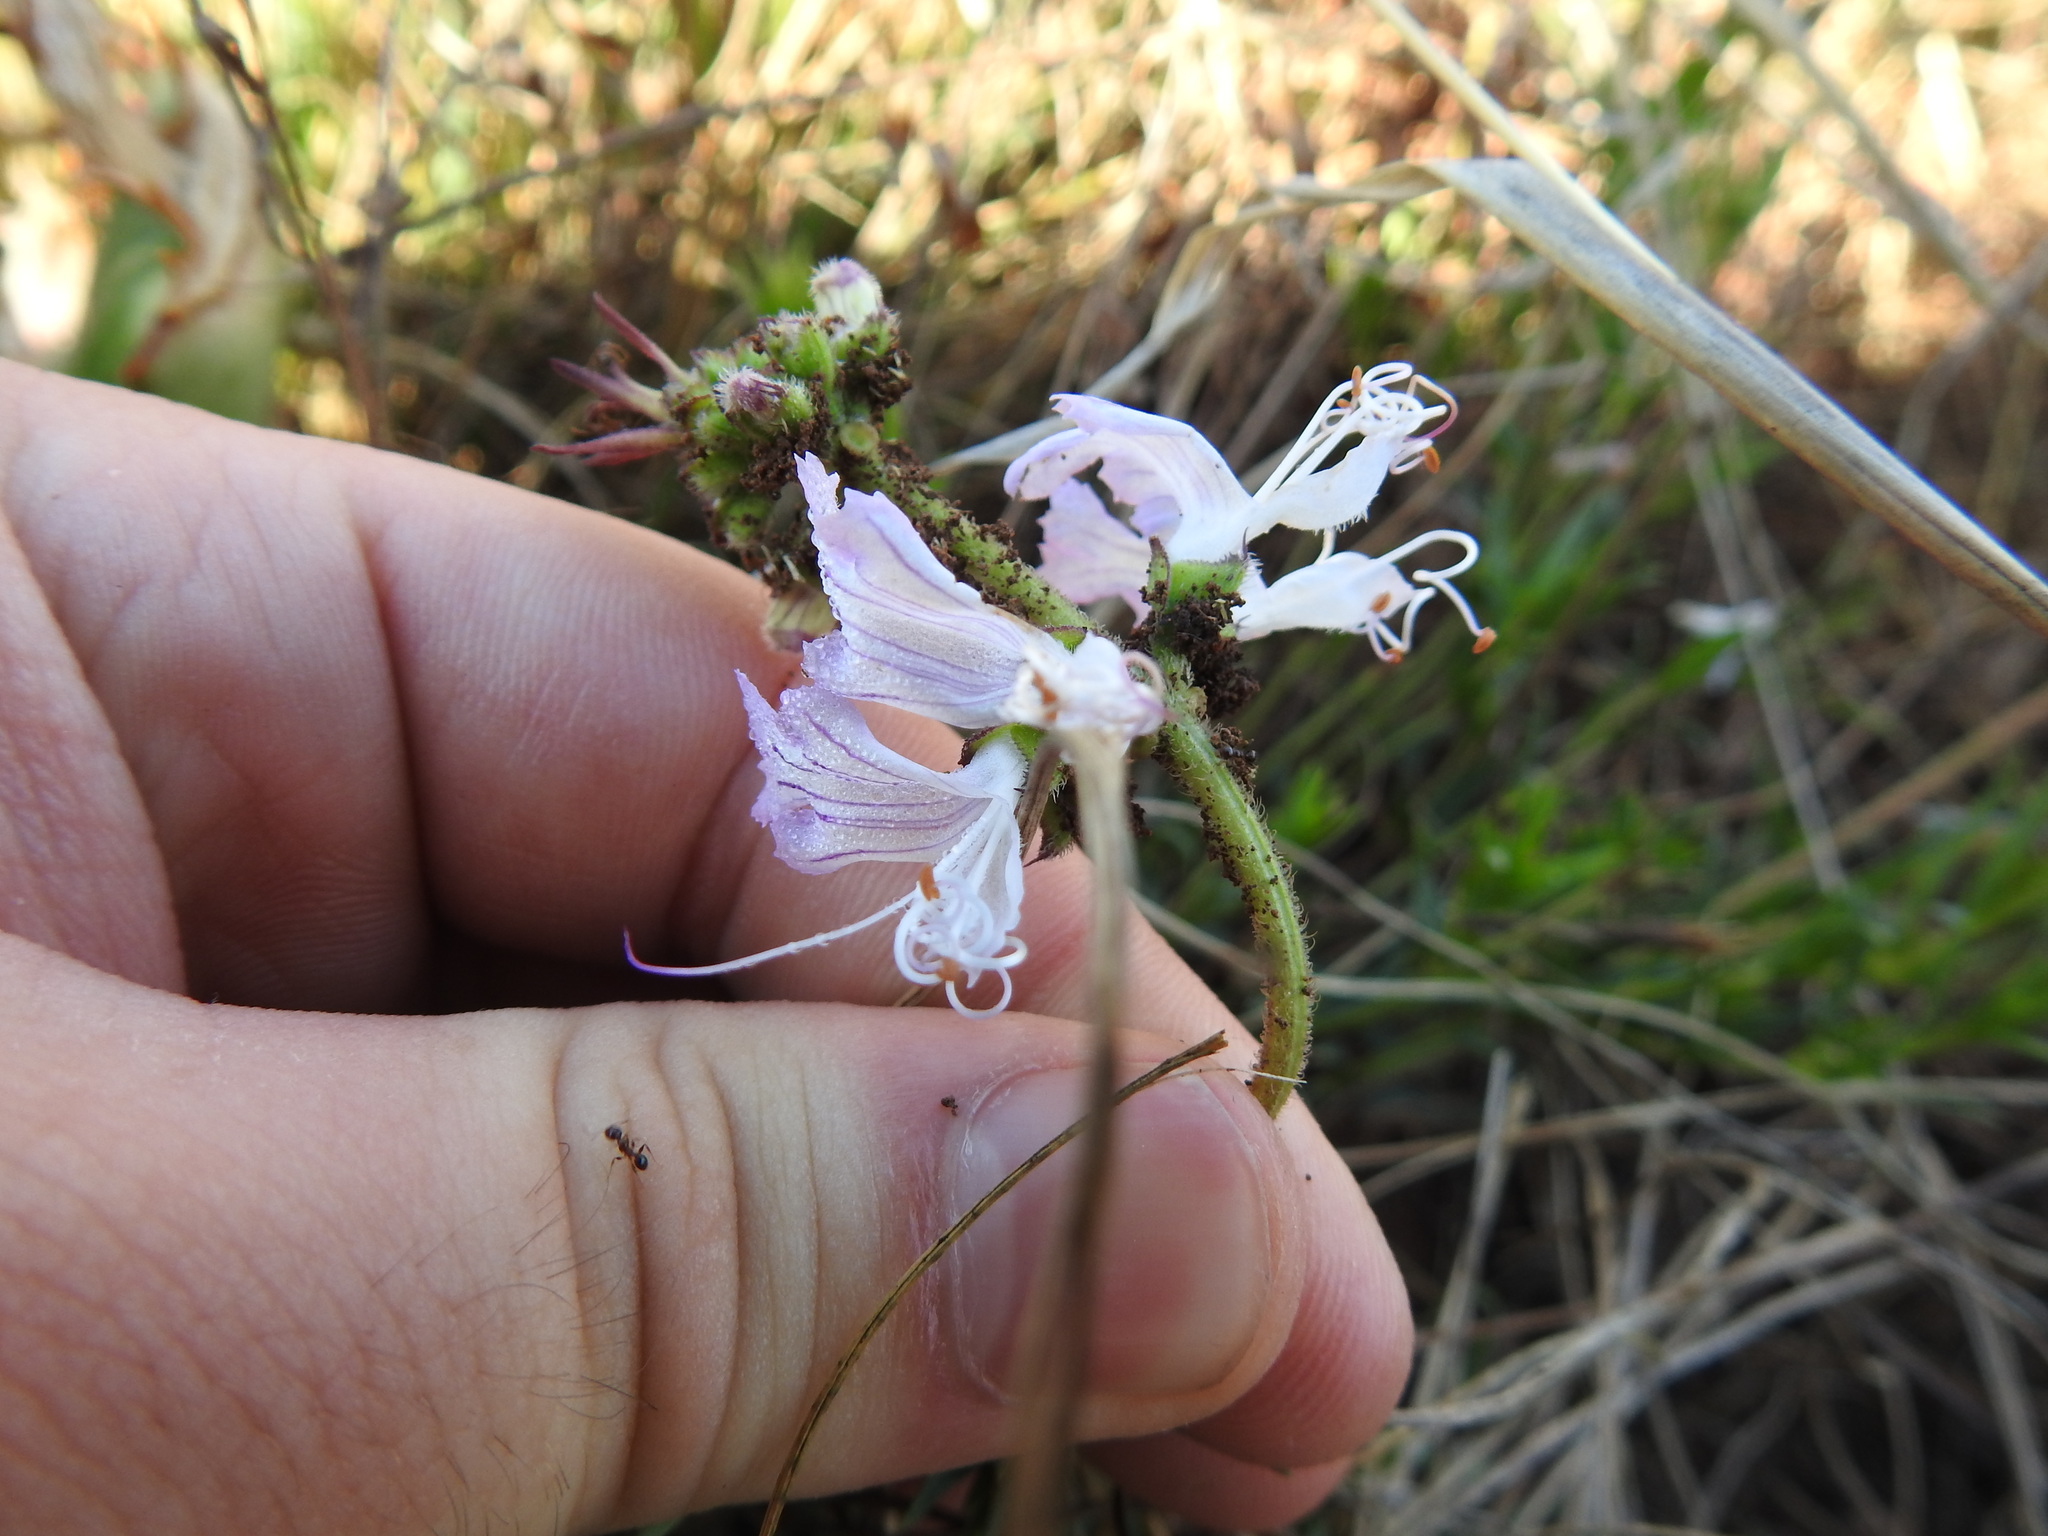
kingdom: Plantae
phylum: Tracheophyta
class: Magnoliopsida
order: Lamiales
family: Lamiaceae
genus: Ocimum
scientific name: Ocimum obovatum
